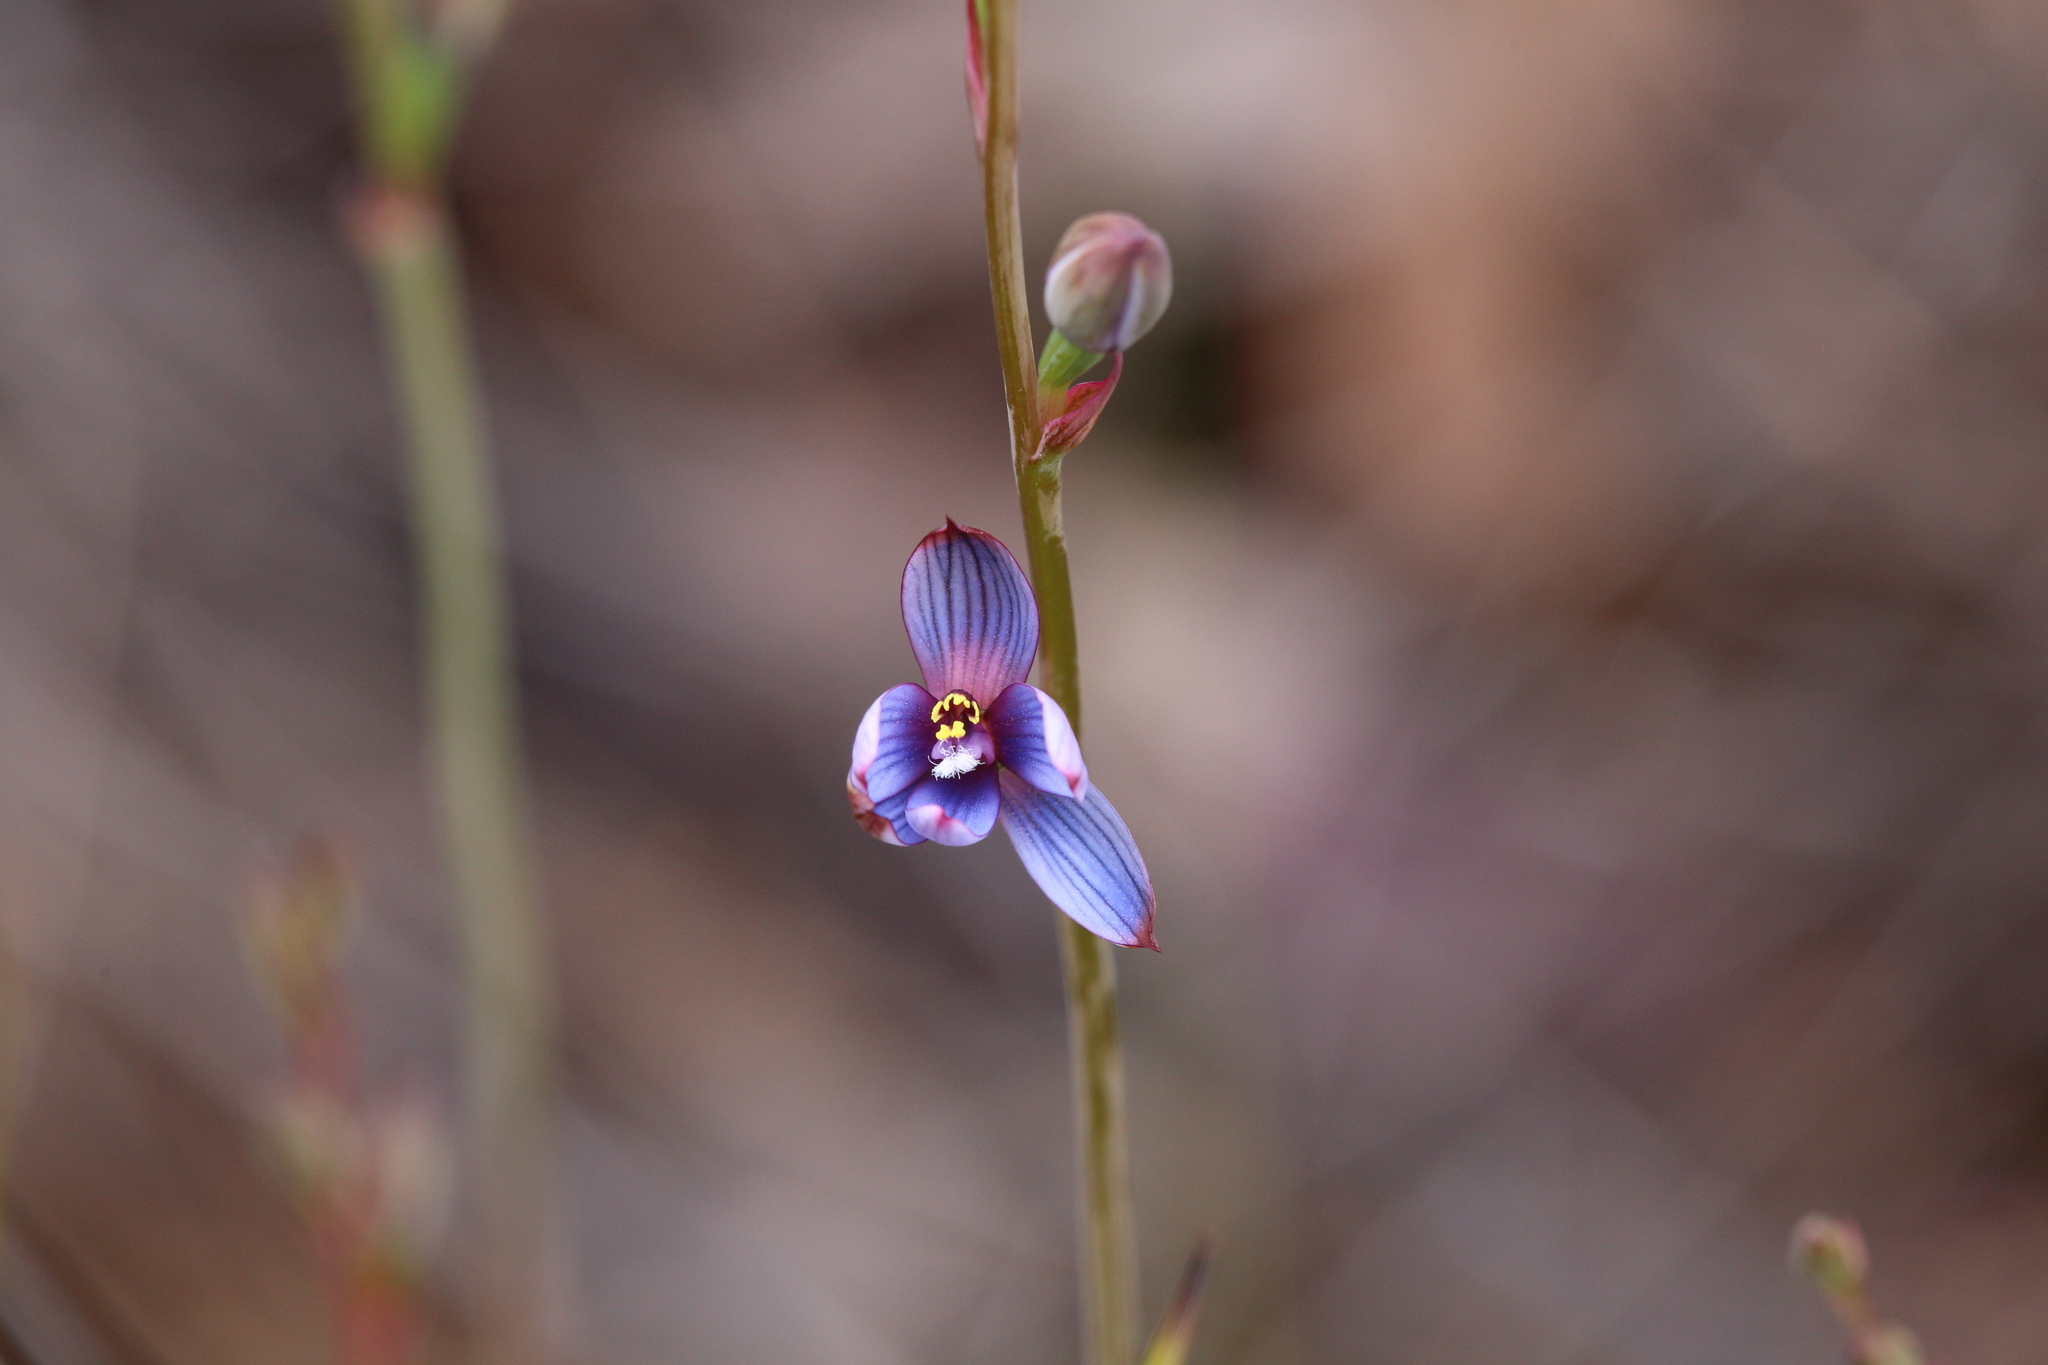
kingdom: Plantae
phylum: Tracheophyta
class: Liliopsida
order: Asparagales
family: Orchidaceae
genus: Thelymitra
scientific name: Thelymitra canaliculata
